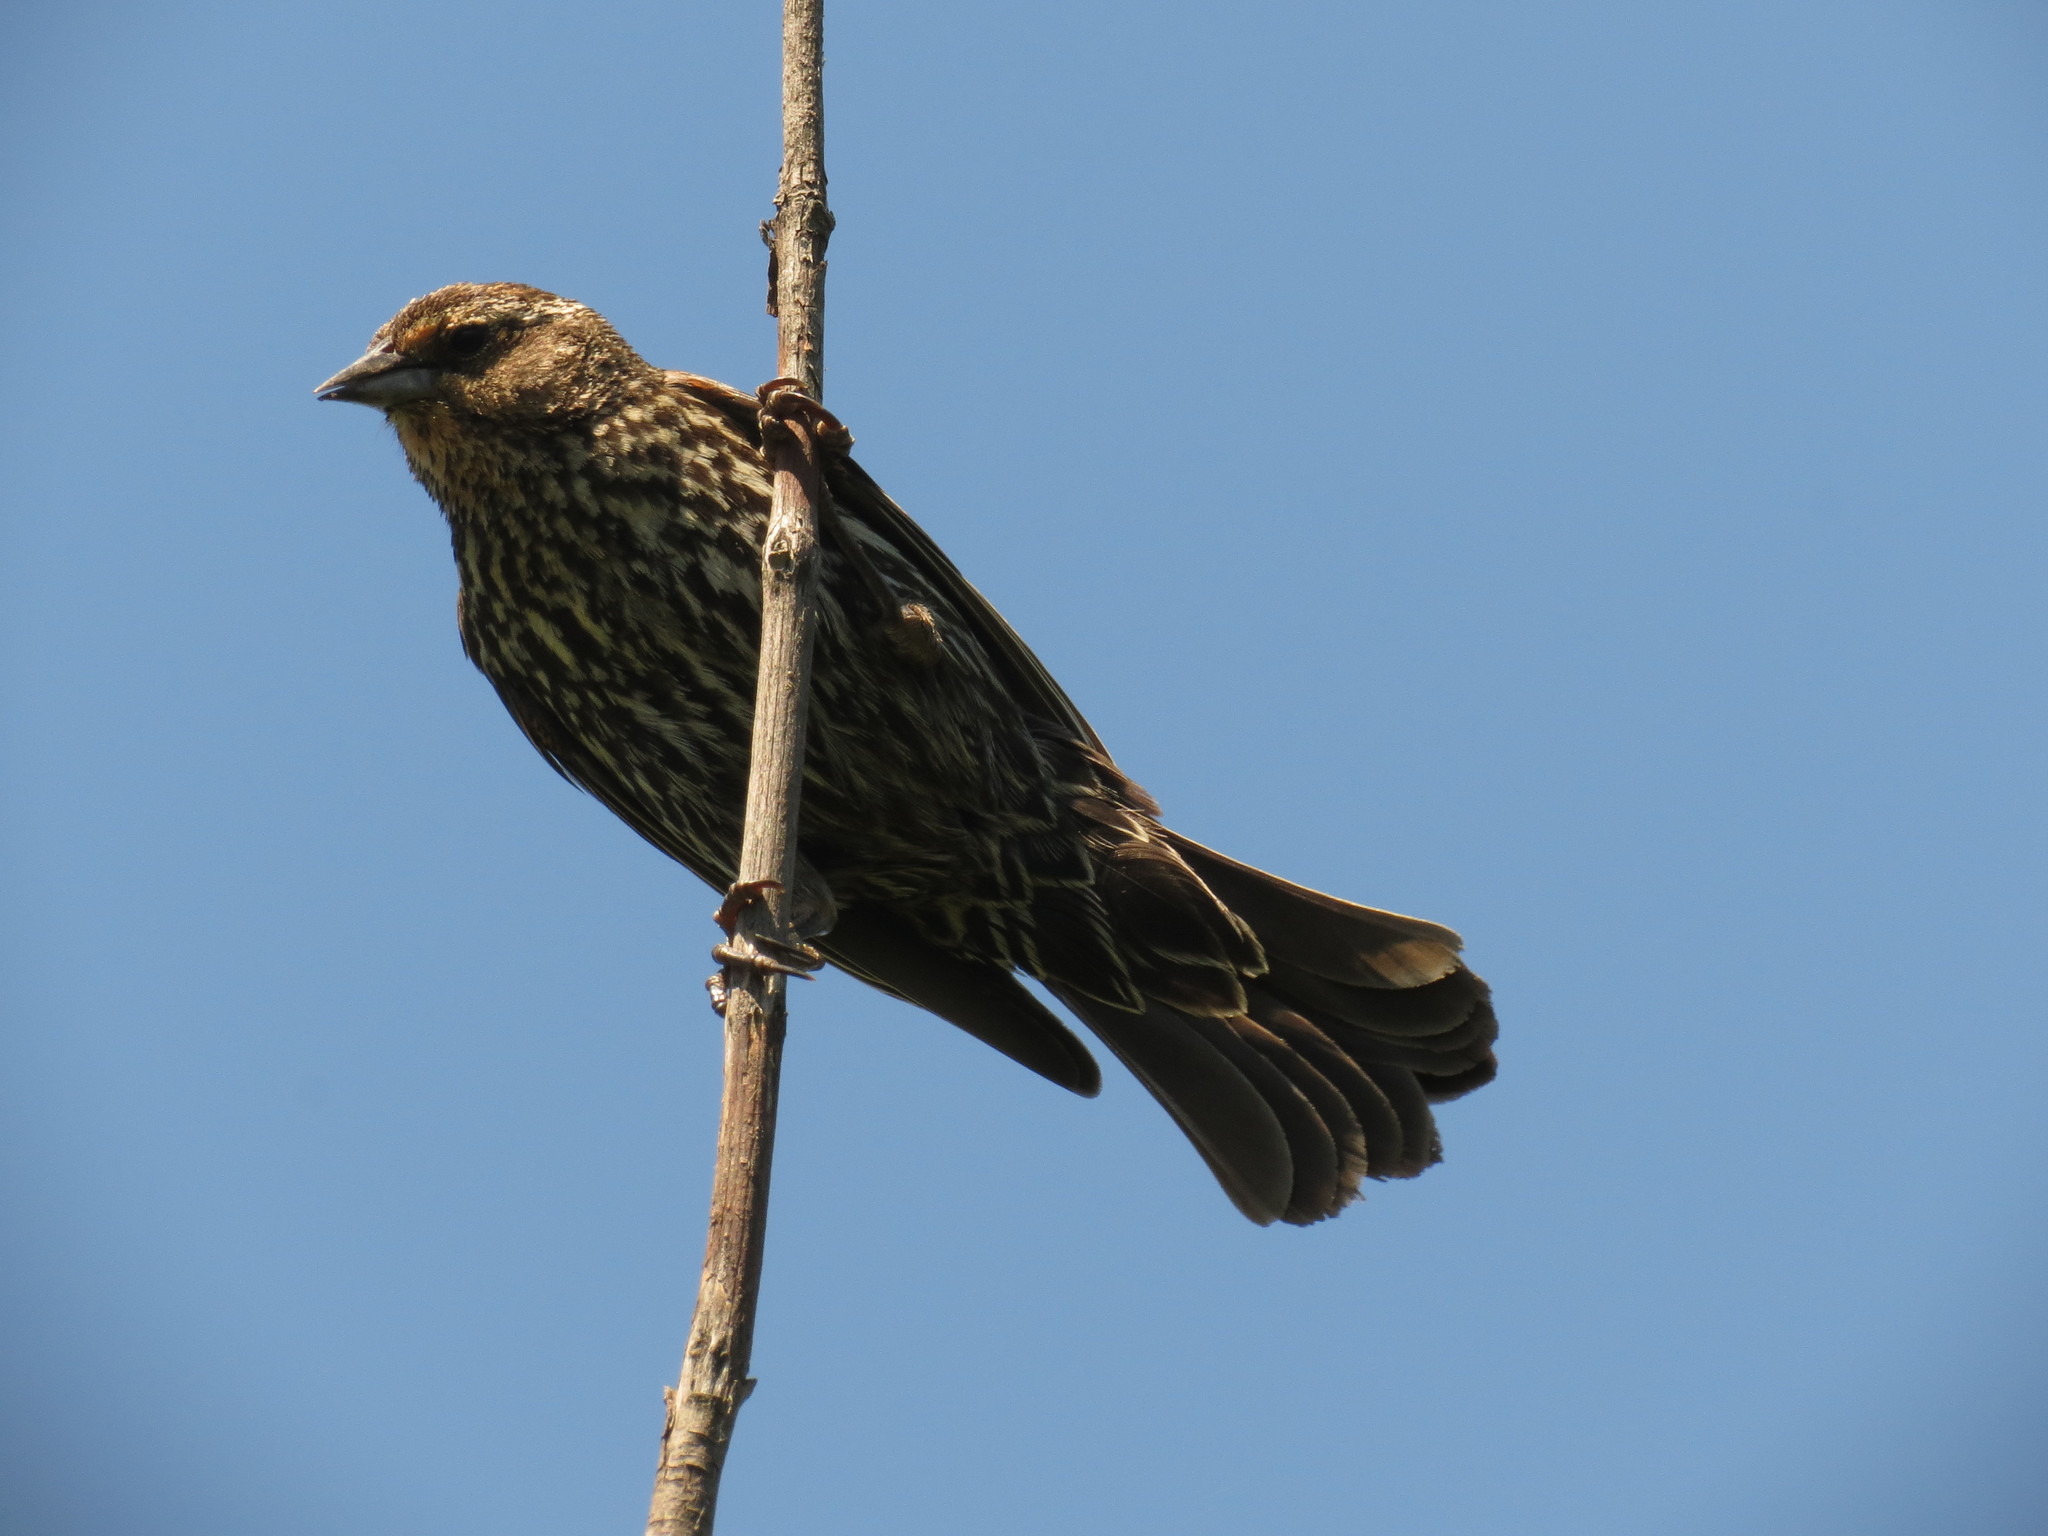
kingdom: Animalia
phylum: Chordata
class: Aves
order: Passeriformes
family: Icteridae
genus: Agelaius
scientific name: Agelaius phoeniceus
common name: Red-winged blackbird
